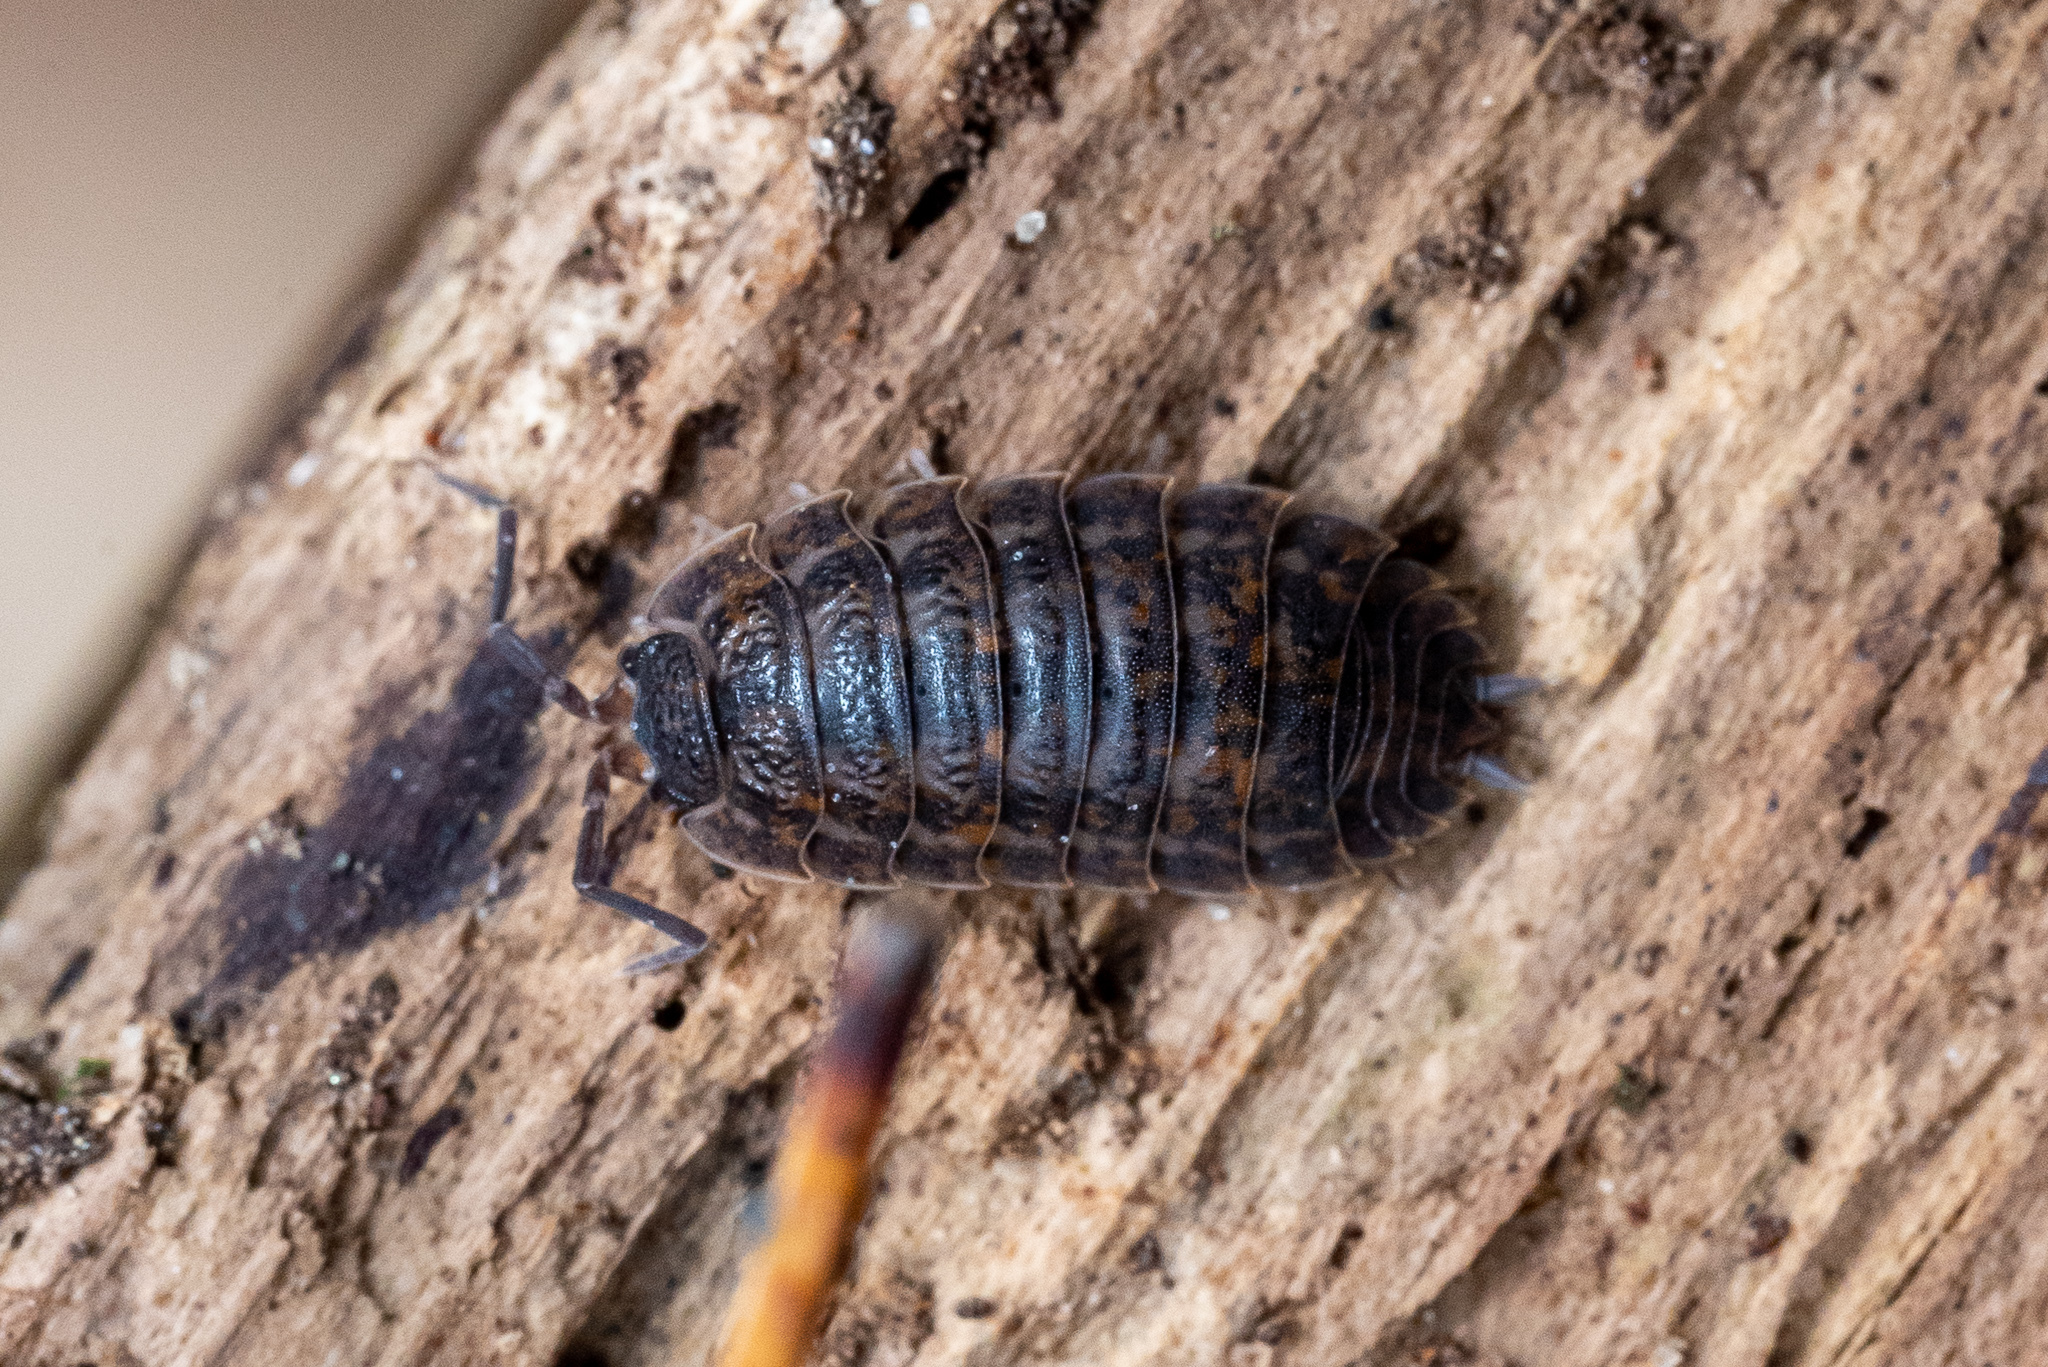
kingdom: Animalia
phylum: Arthropoda
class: Malacostraca
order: Isopoda
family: Trachelipodidae
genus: Trachelipus
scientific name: Trachelipus rathkii
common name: Isopod
